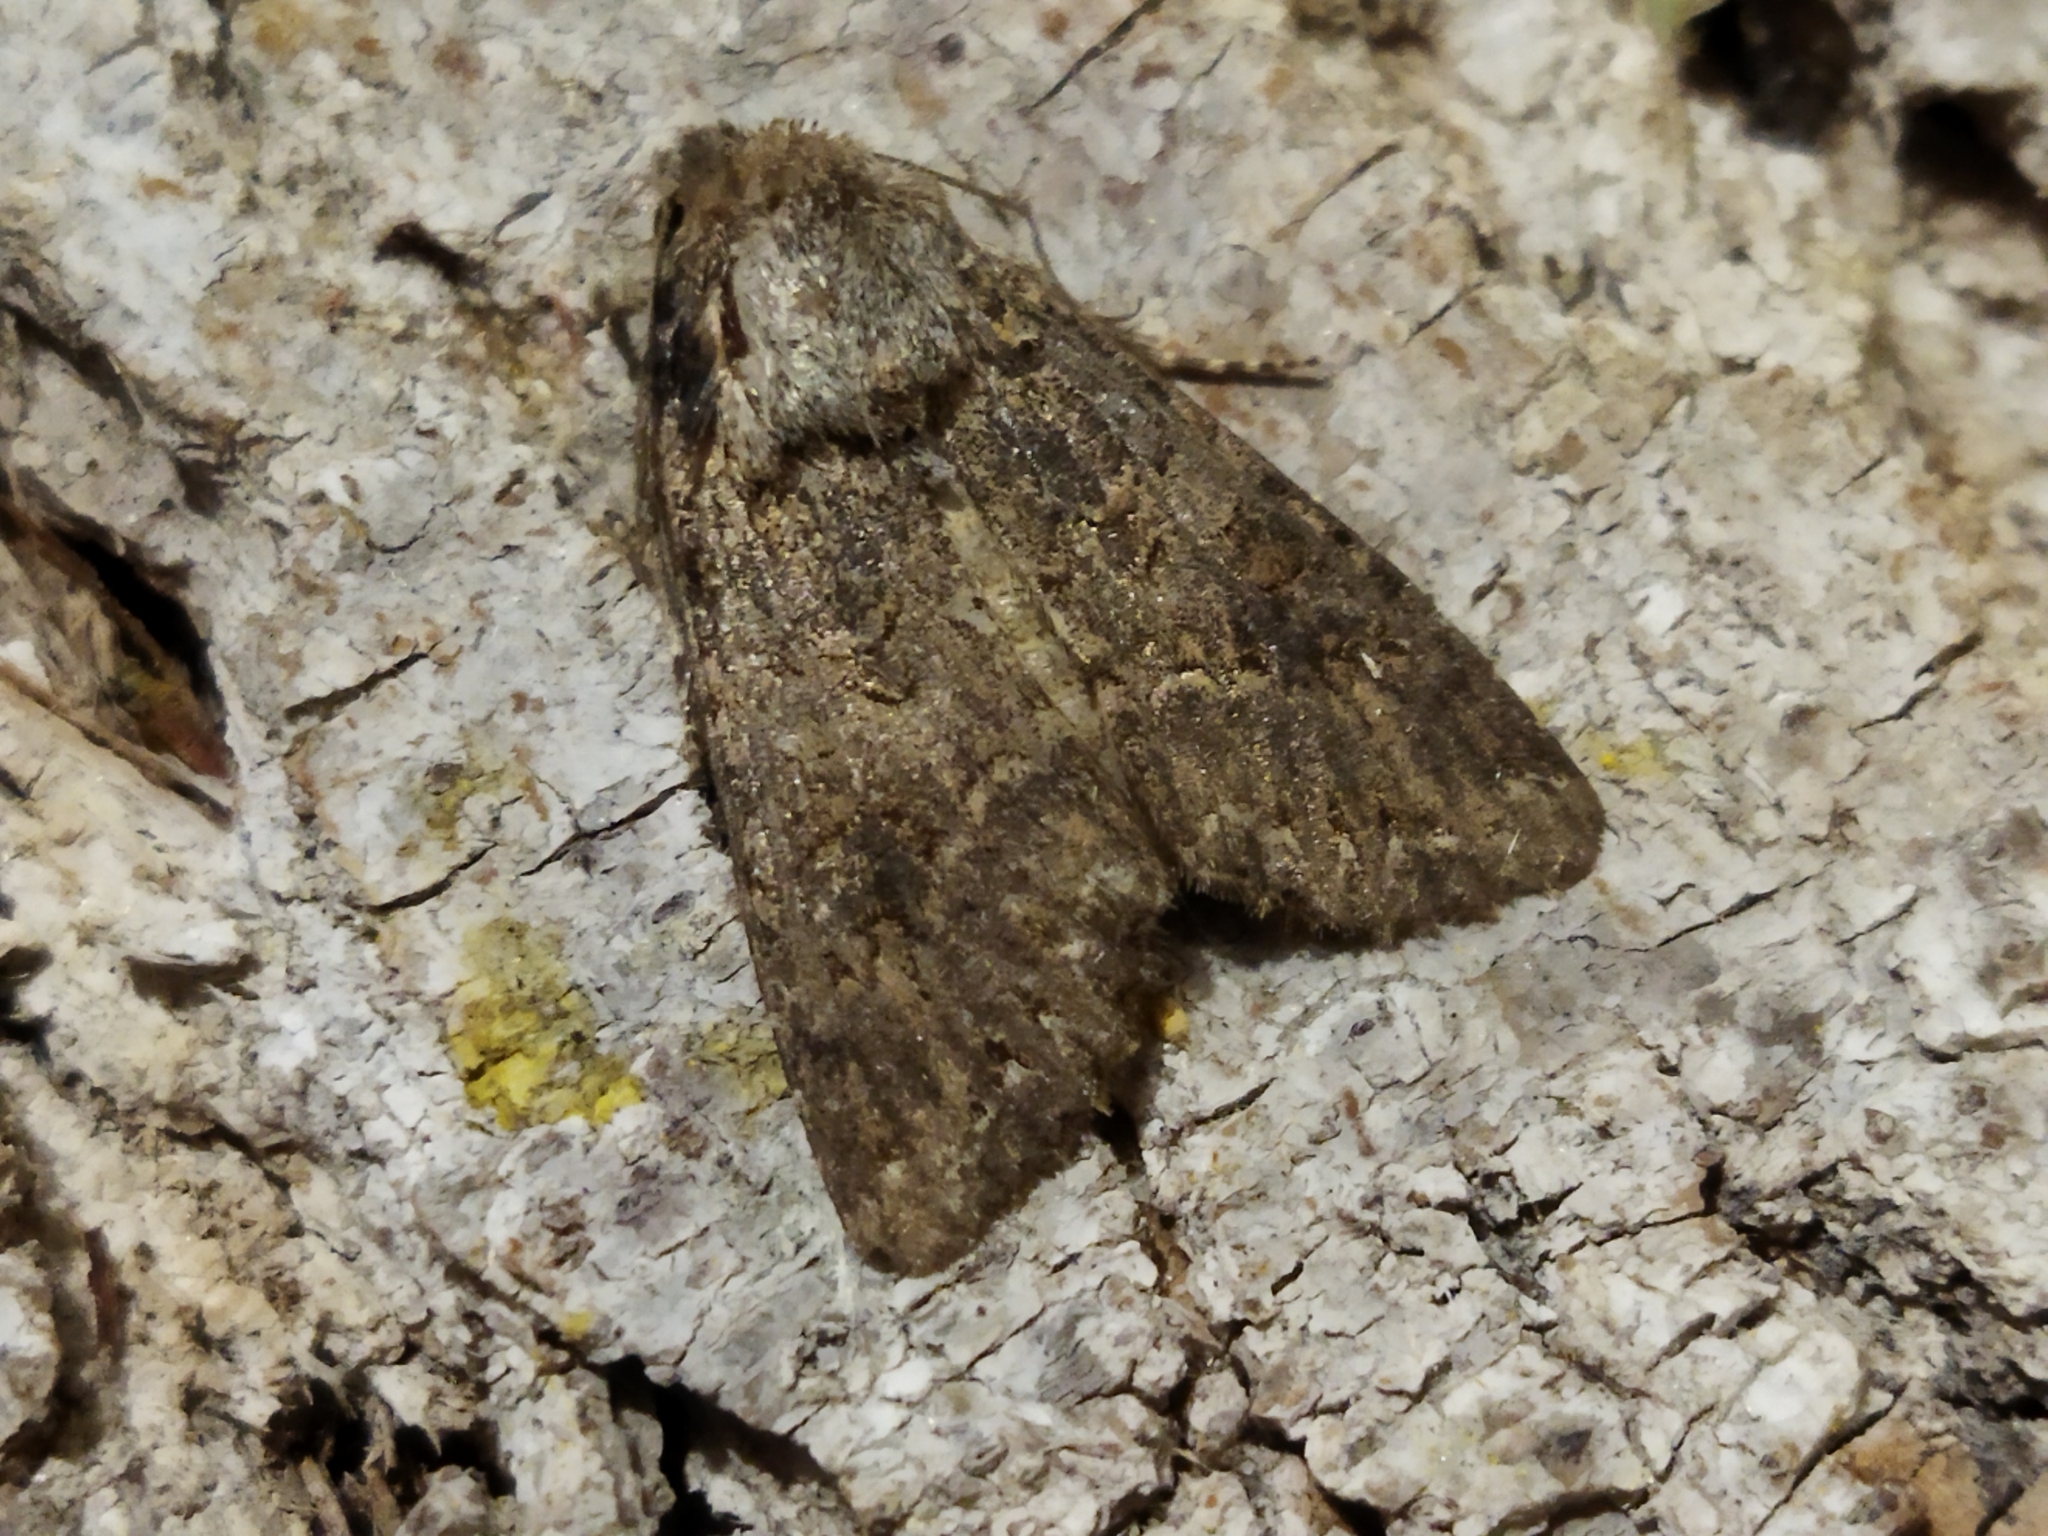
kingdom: Animalia
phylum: Arthropoda
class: Insecta
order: Lepidoptera
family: Noctuidae
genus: Anarta
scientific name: Anarta
